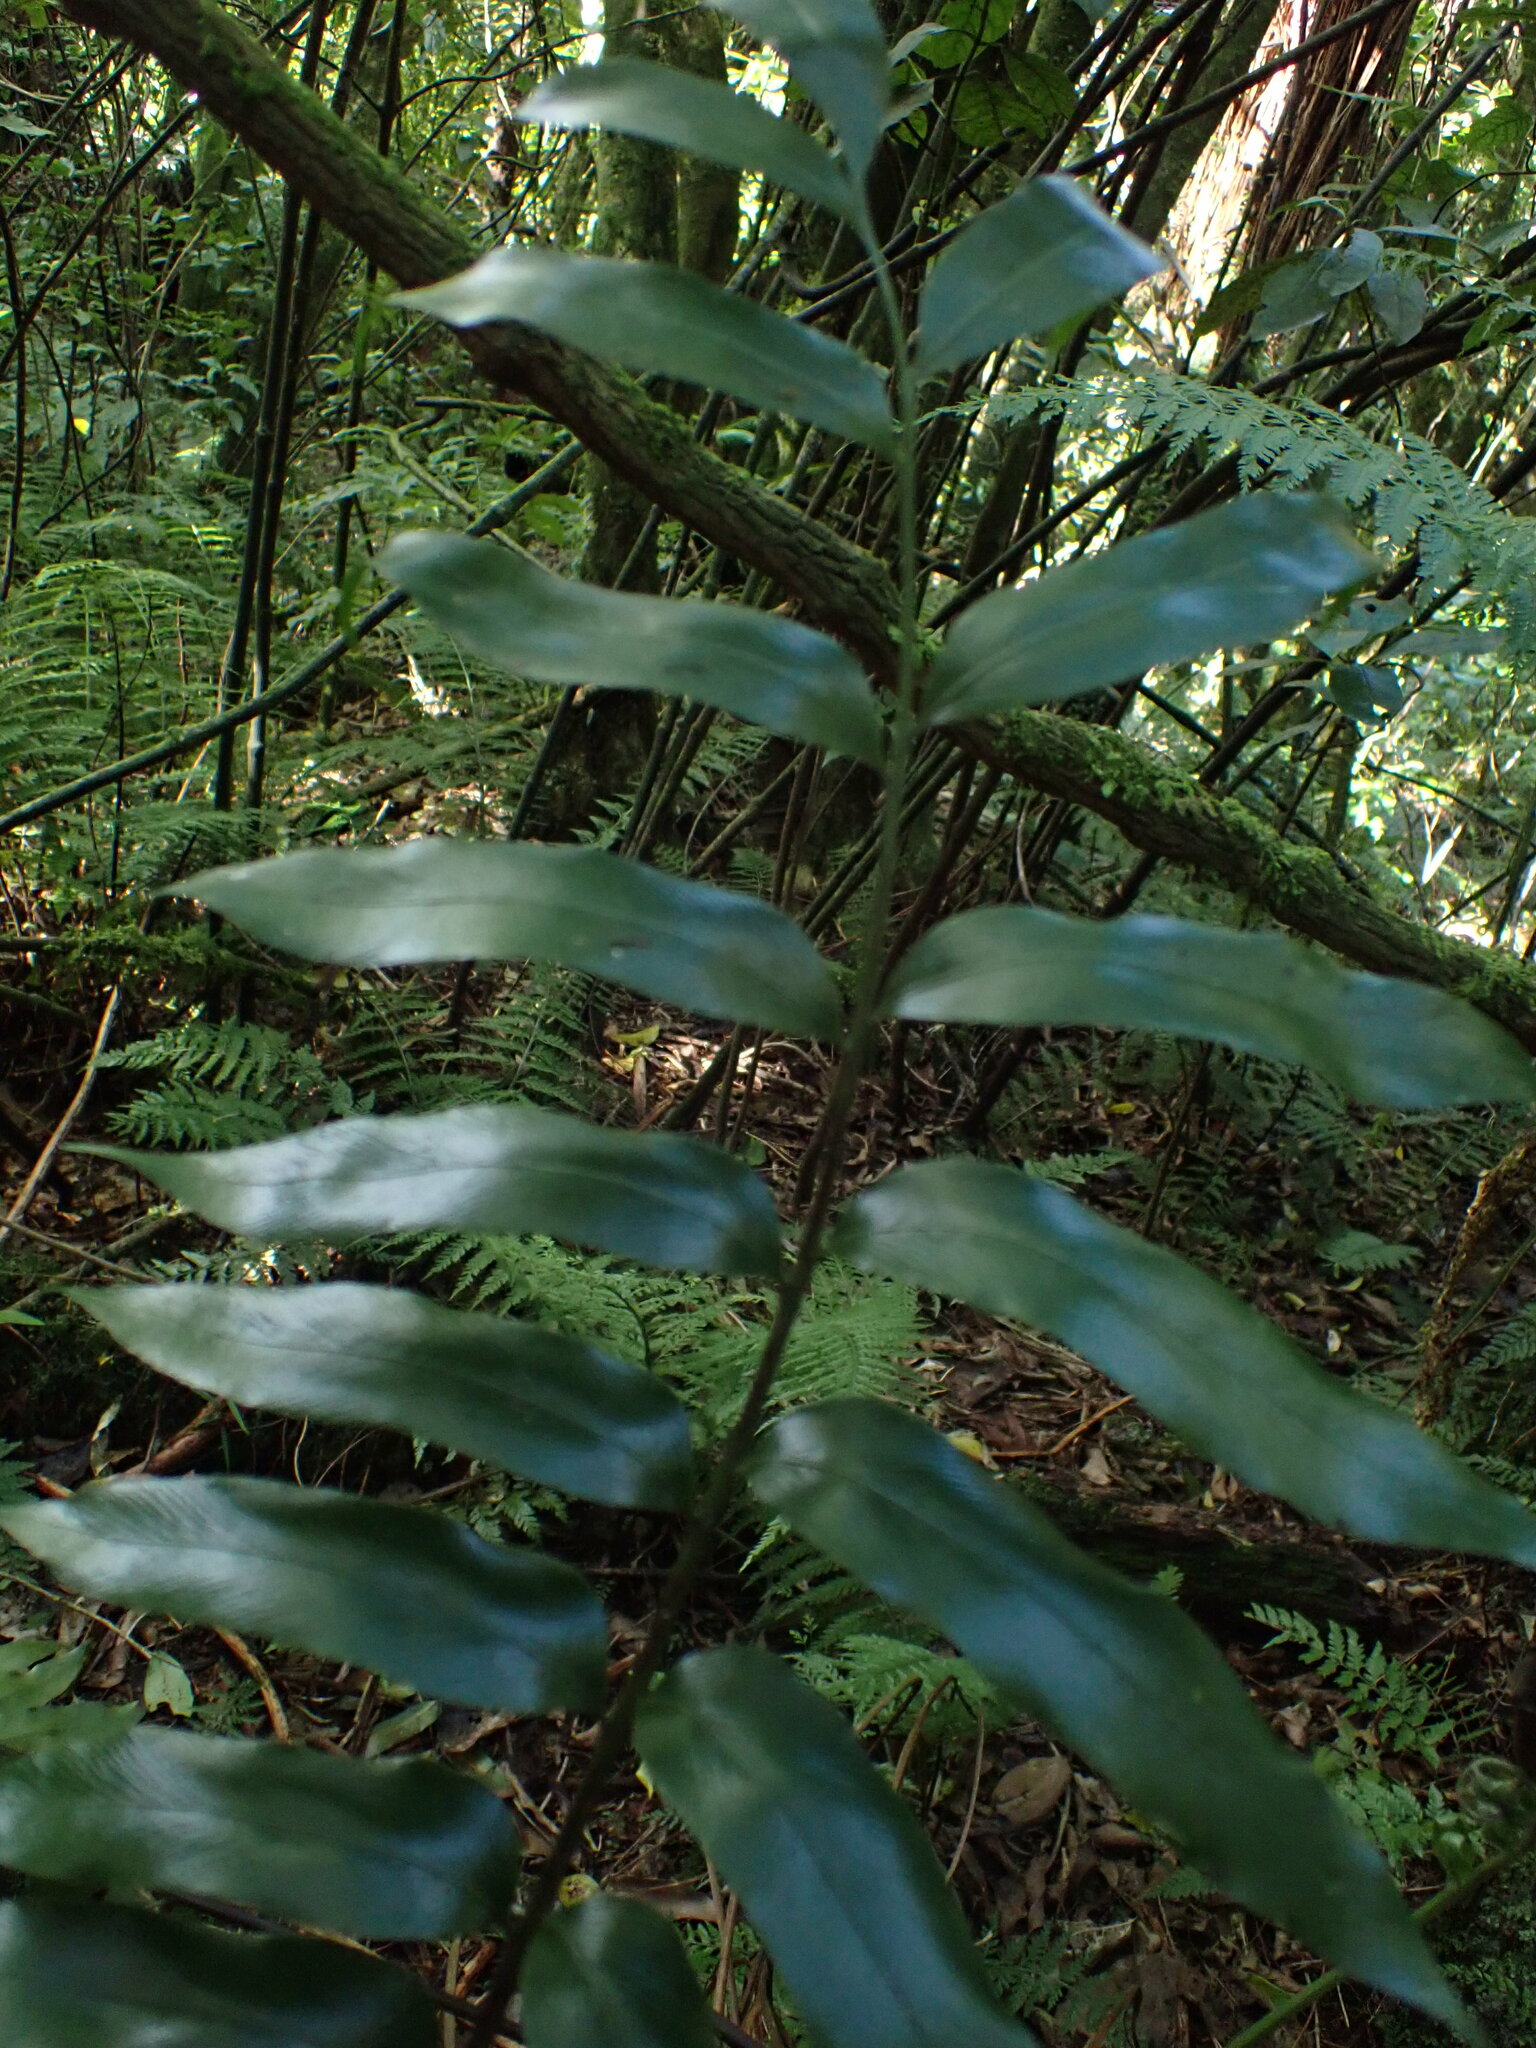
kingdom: Plantae
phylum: Tracheophyta
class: Polypodiopsida
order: Polypodiales
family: Aspleniaceae
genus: Asplenium
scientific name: Asplenium oblongifolium
